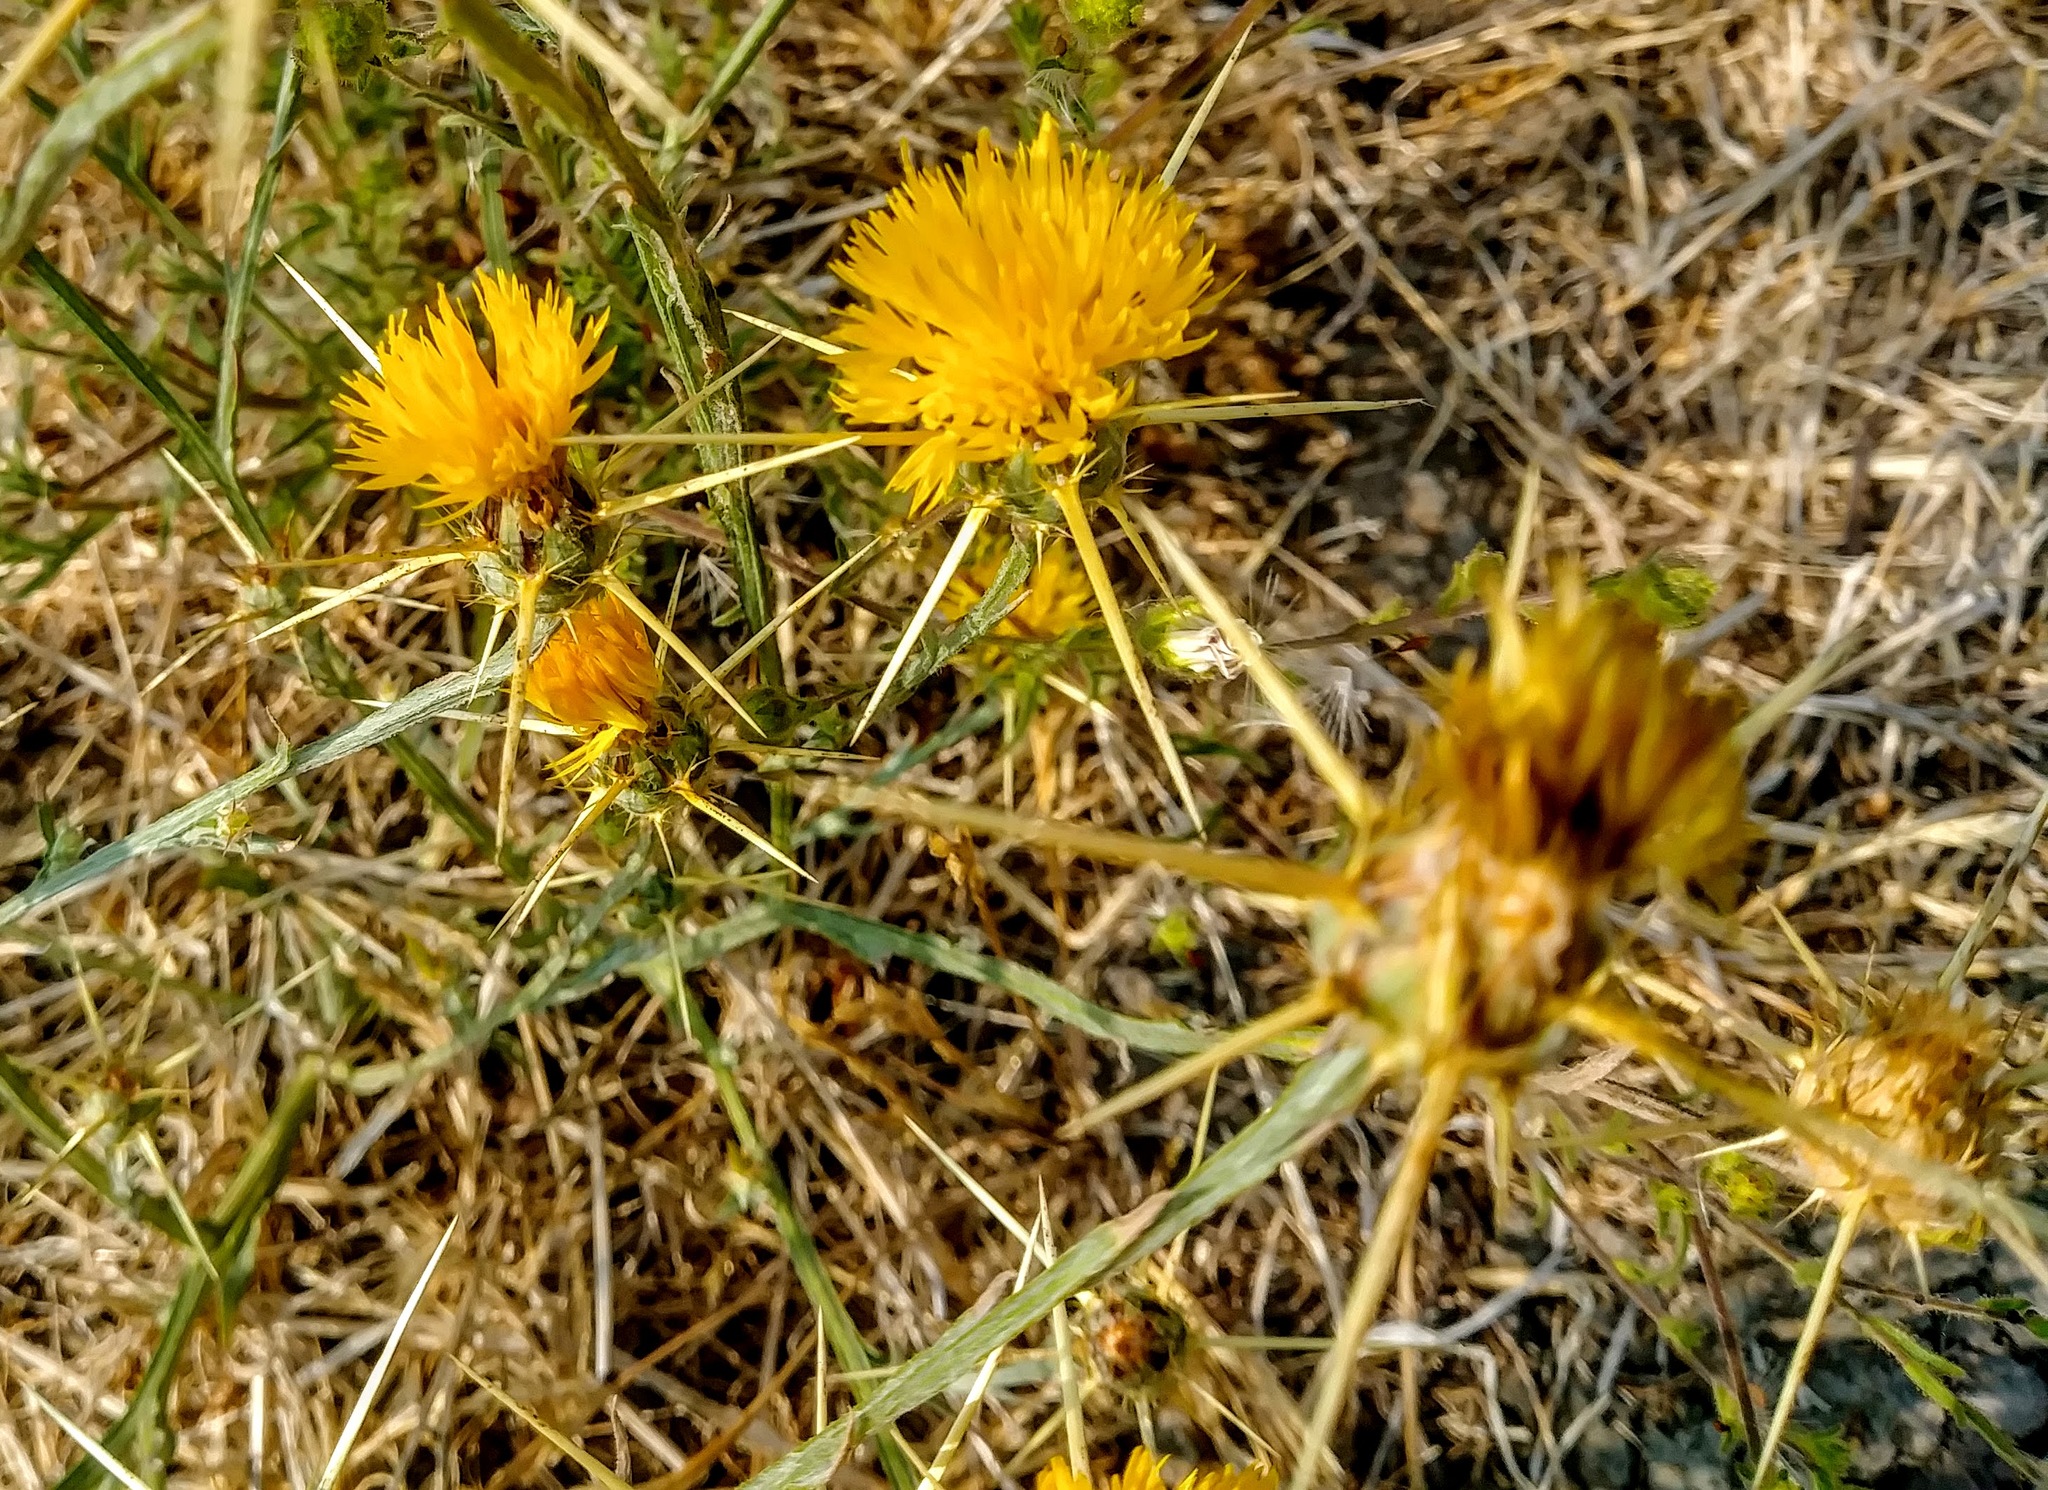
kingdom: Plantae
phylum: Tracheophyta
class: Magnoliopsida
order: Asterales
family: Asteraceae
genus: Centaurea
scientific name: Centaurea solstitialis
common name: Yellow star-thistle
